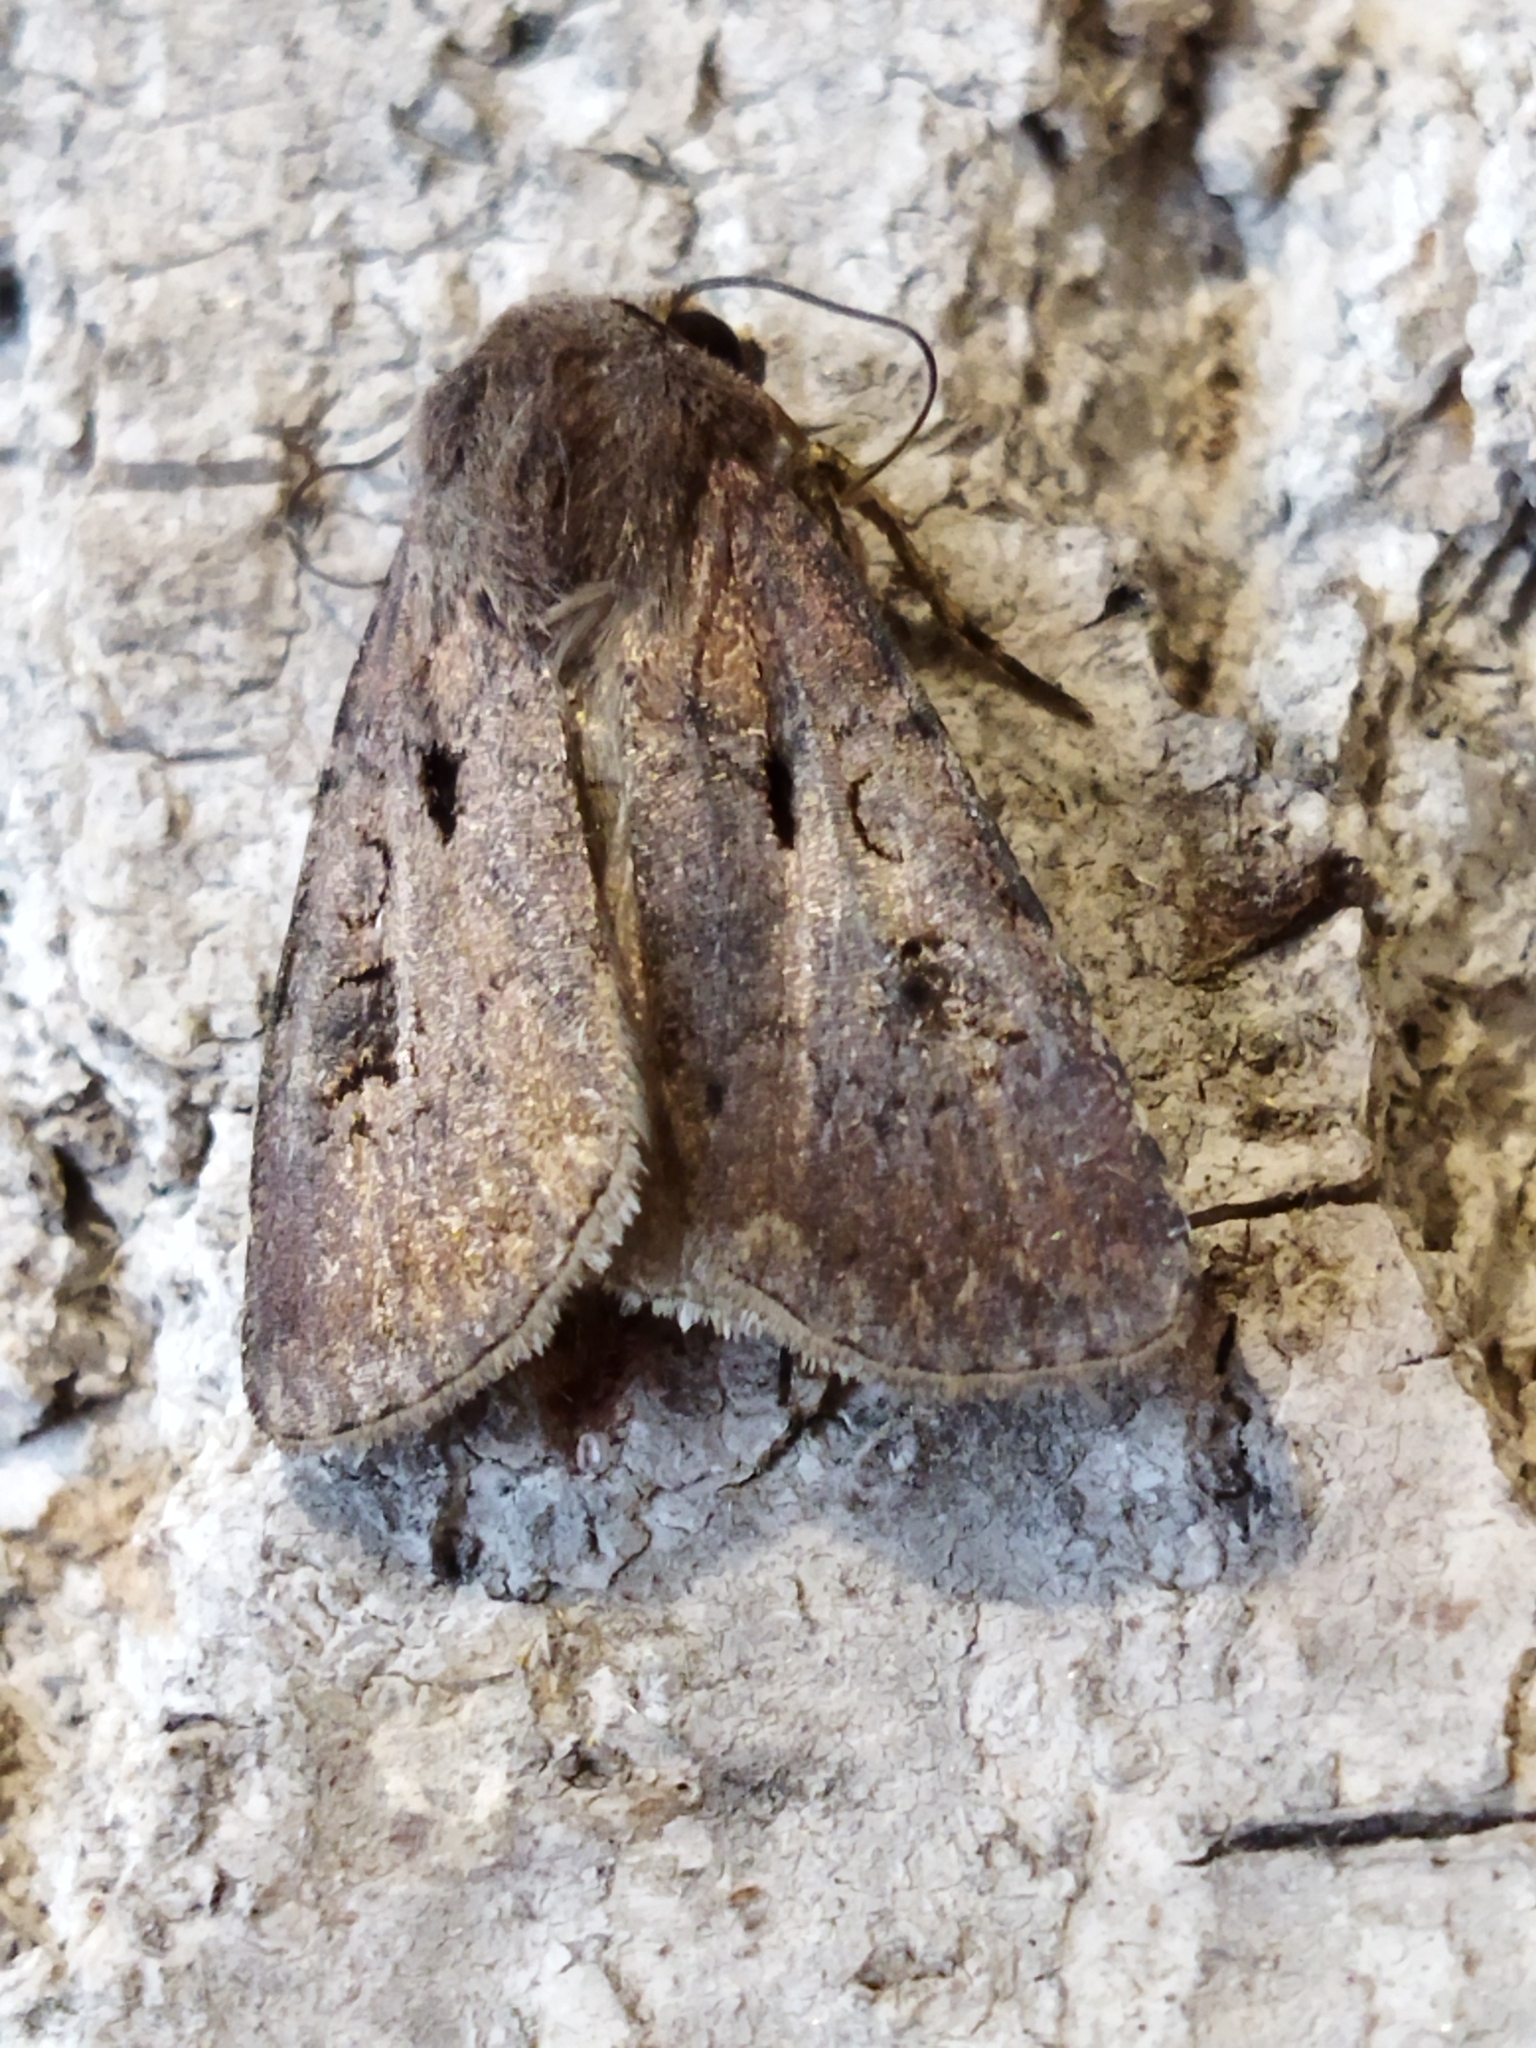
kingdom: Animalia
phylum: Arthropoda
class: Insecta
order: Lepidoptera
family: Noctuidae
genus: Agrotis
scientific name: Agrotis exclamationis
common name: Heart and dart
